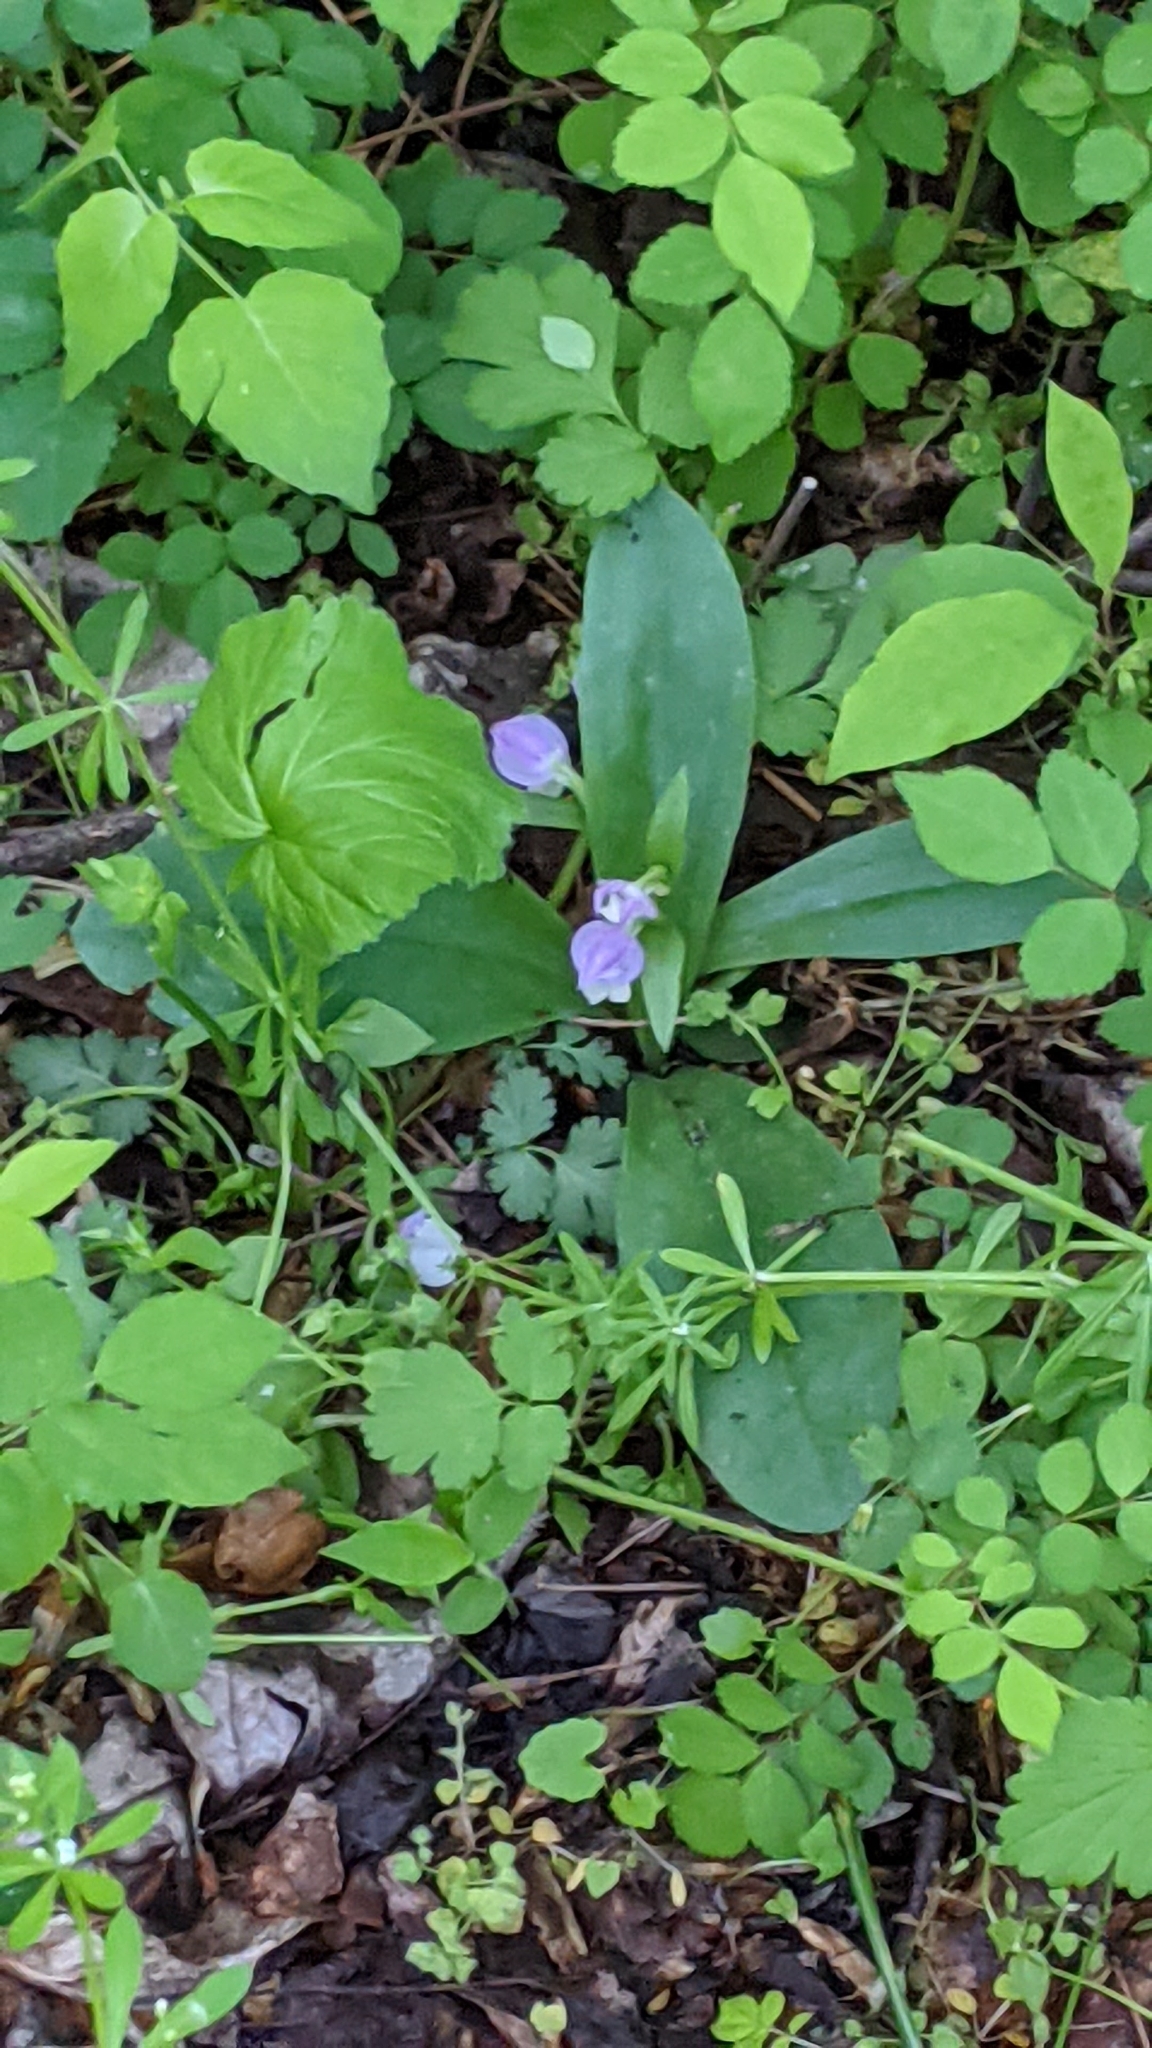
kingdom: Plantae
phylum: Tracheophyta
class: Liliopsida
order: Asparagales
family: Orchidaceae
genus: Galearis
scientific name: Galearis spectabilis
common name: Purple-hooded orchis
